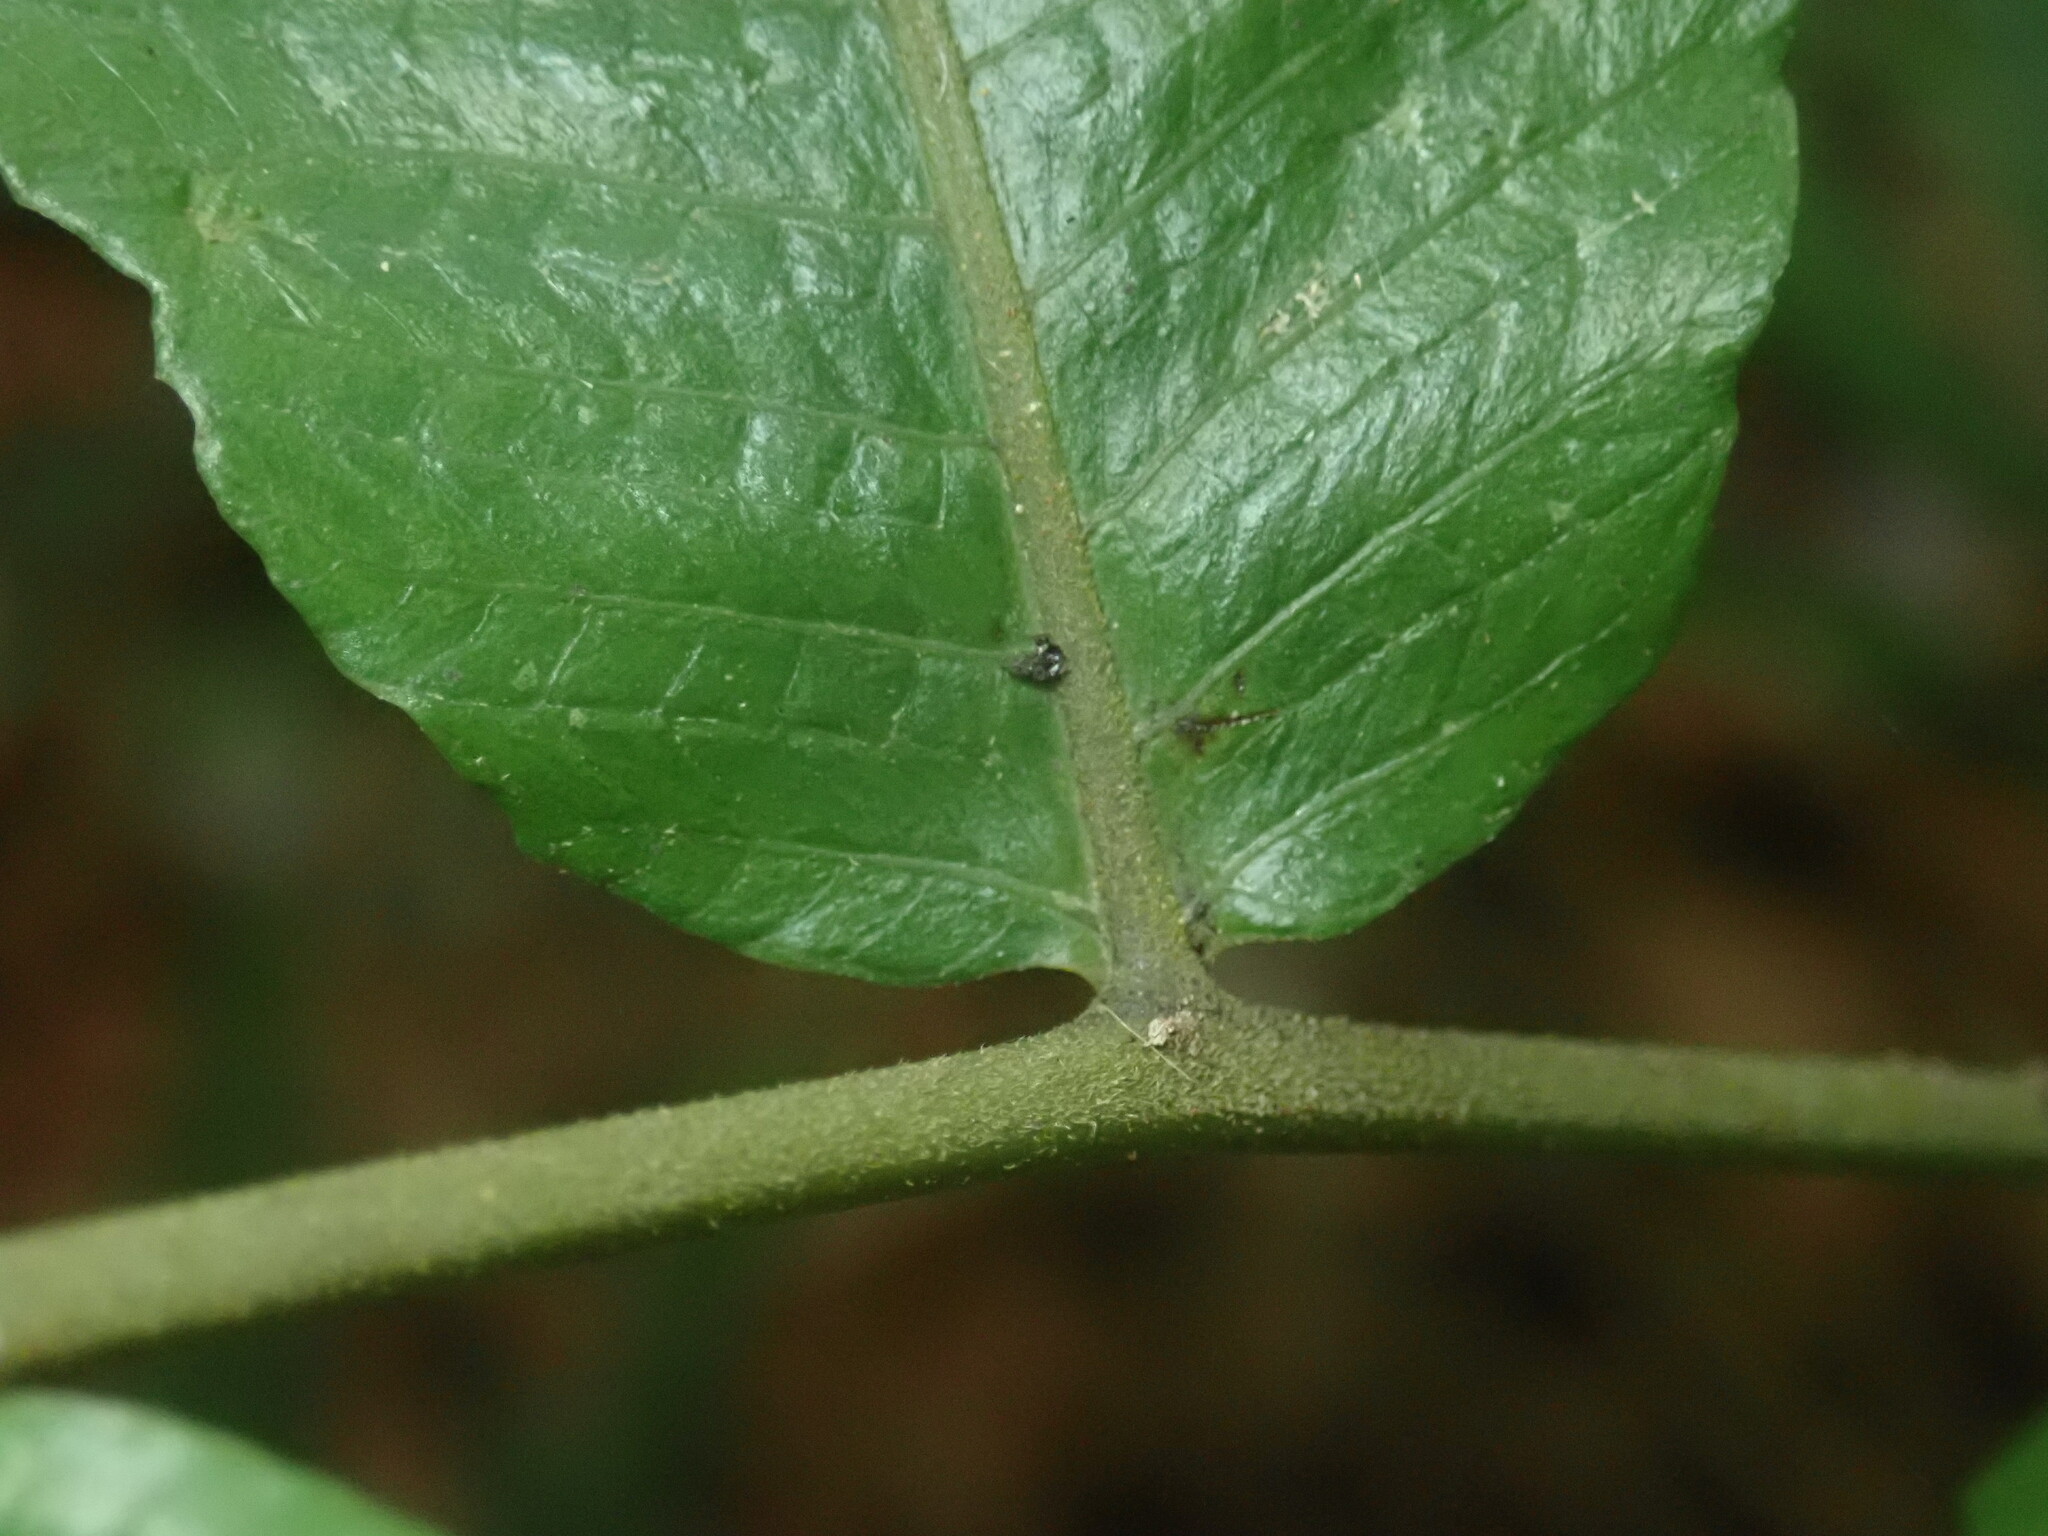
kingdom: Plantae
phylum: Tracheophyta
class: Polypodiopsida
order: Polypodiales
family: Thelypteridaceae
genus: Abacopteris
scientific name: Abacopteris gymnopteridifrons
